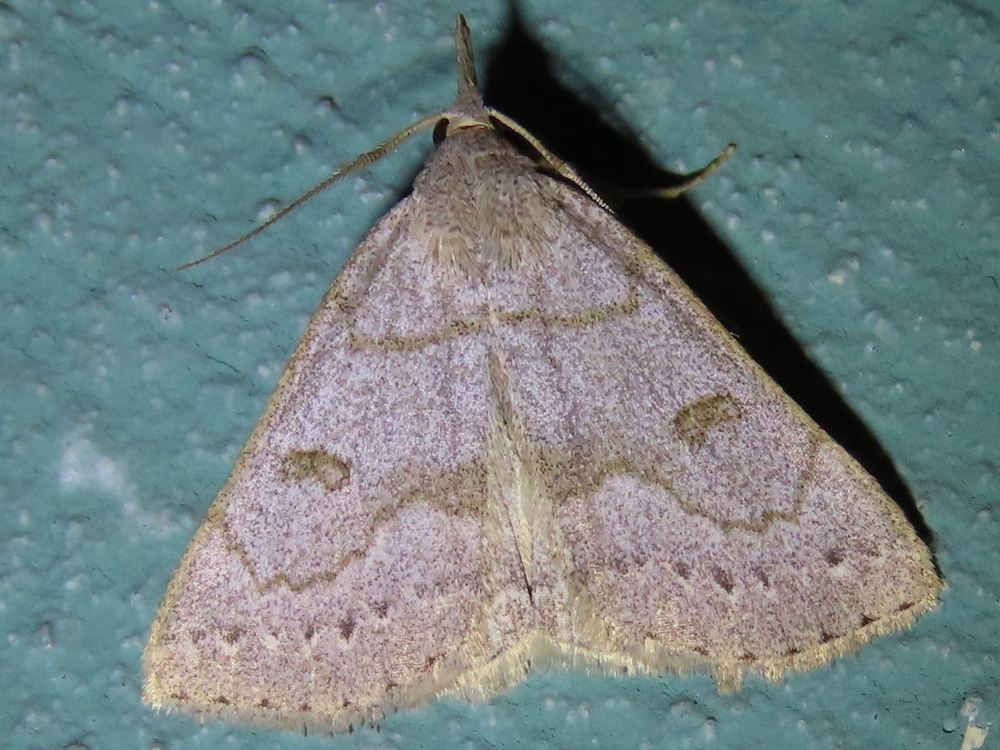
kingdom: Animalia
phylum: Arthropoda
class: Insecta
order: Lepidoptera
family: Erebidae
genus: Macrochilo
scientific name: Macrochilo morbidalis
